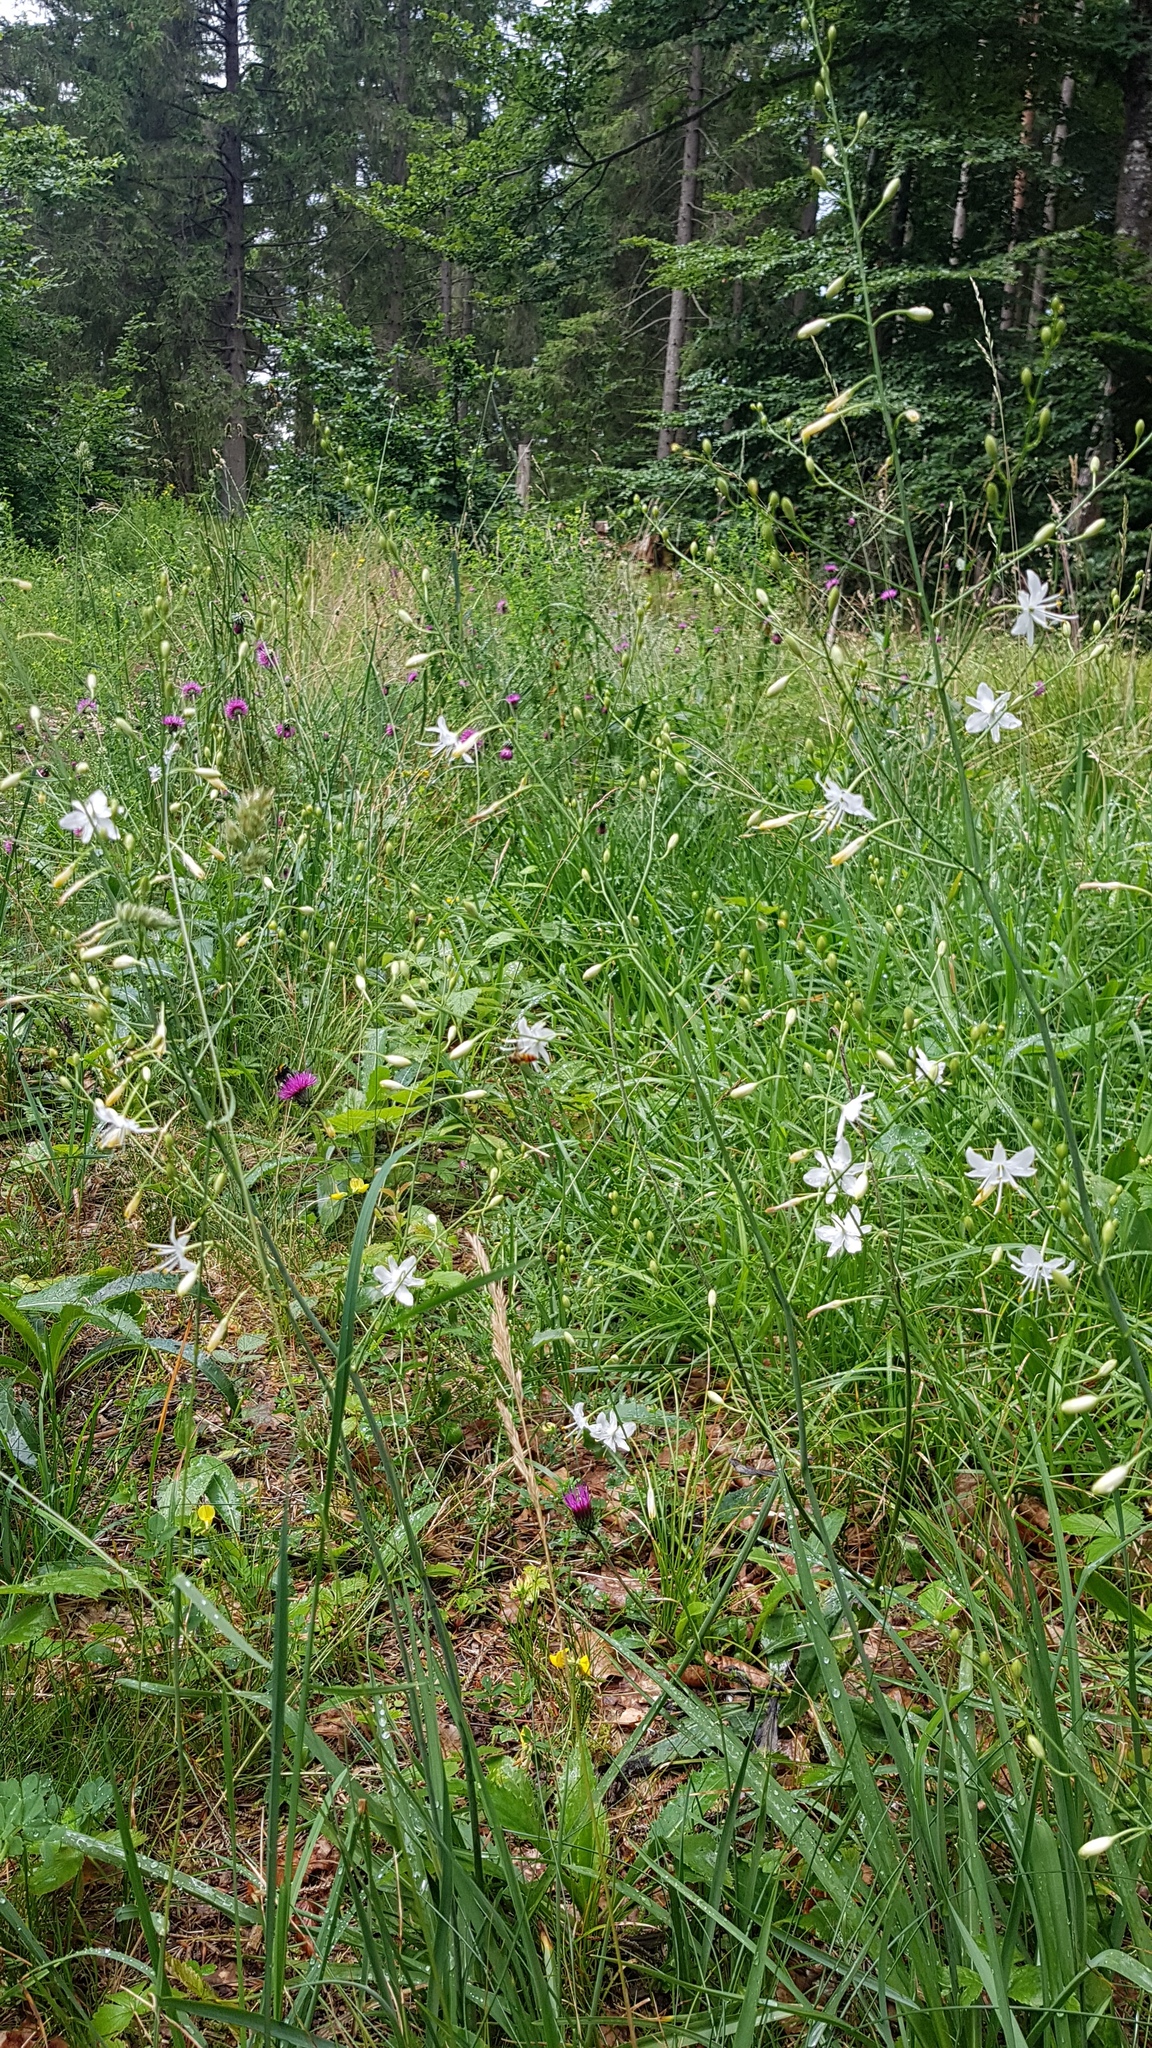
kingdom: Plantae
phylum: Tracheophyta
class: Liliopsida
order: Asparagales
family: Asparagaceae
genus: Anthericum
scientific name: Anthericum ramosum
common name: Branched st. bernard's-lily
